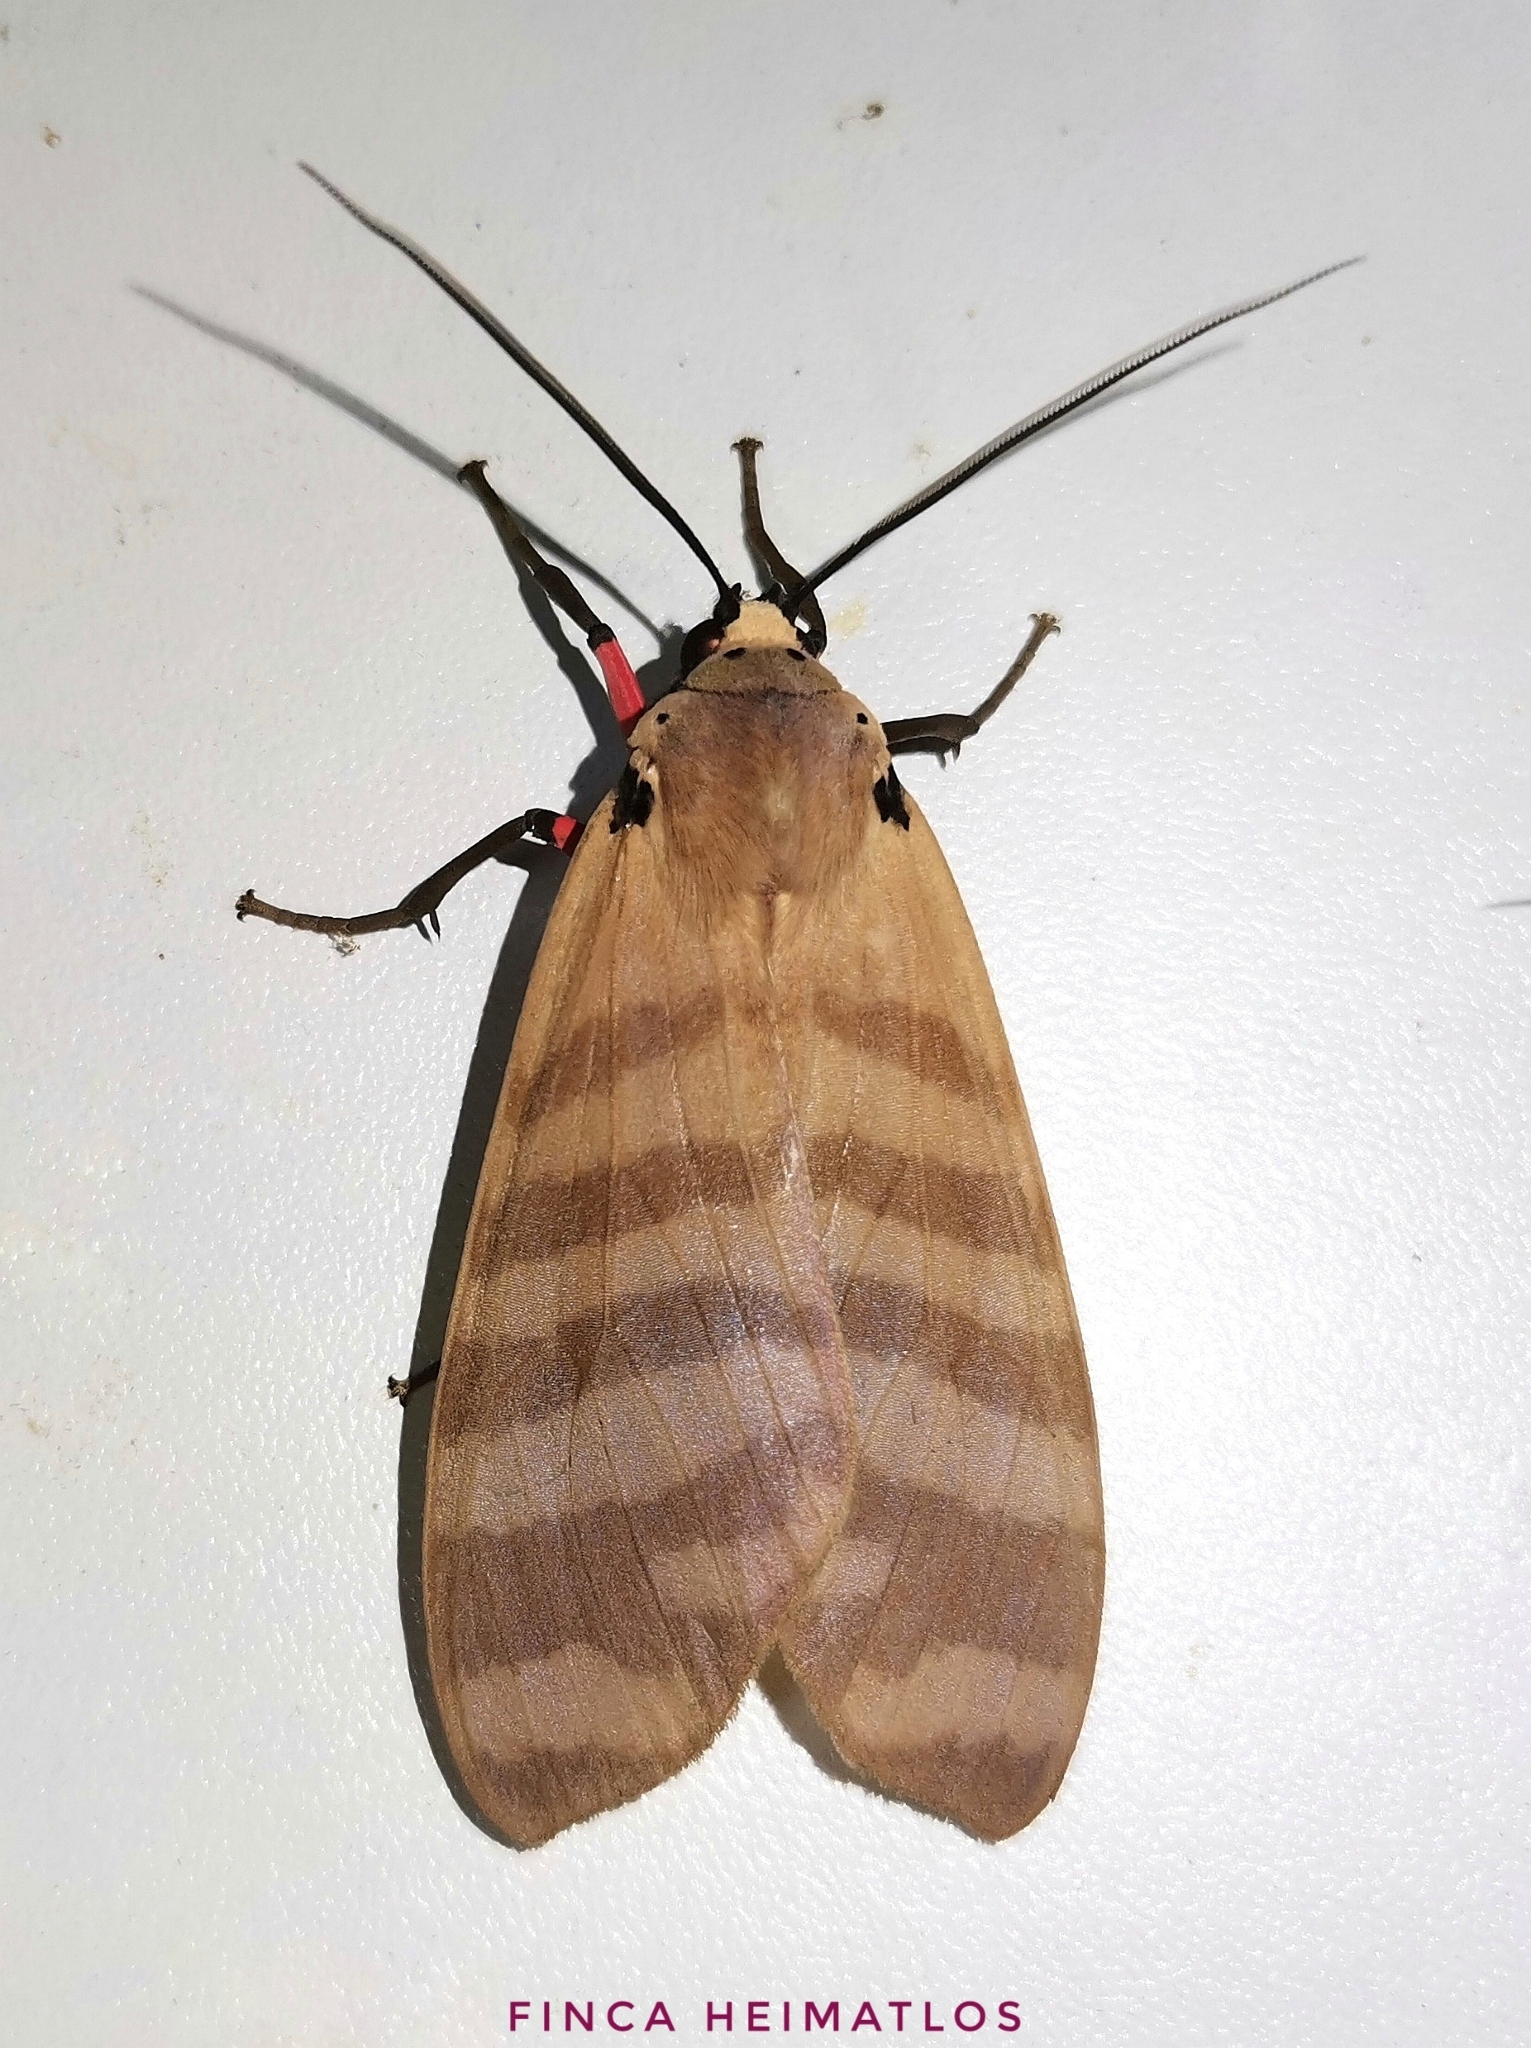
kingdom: Animalia
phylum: Arthropoda
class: Insecta
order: Lepidoptera
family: Erebidae
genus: Elysius
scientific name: Elysius hampsoni
